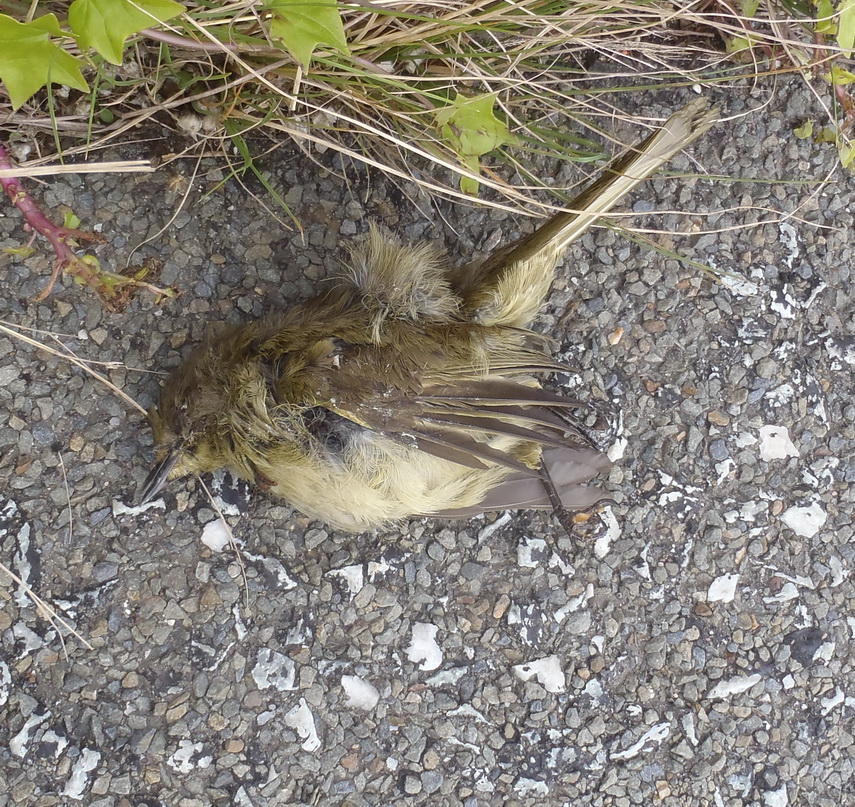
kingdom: Animalia
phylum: Chordata
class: Aves
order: Passeriformes
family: Pycnonotidae
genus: Andropadus
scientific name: Andropadus importunus
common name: Sombre greenbul
